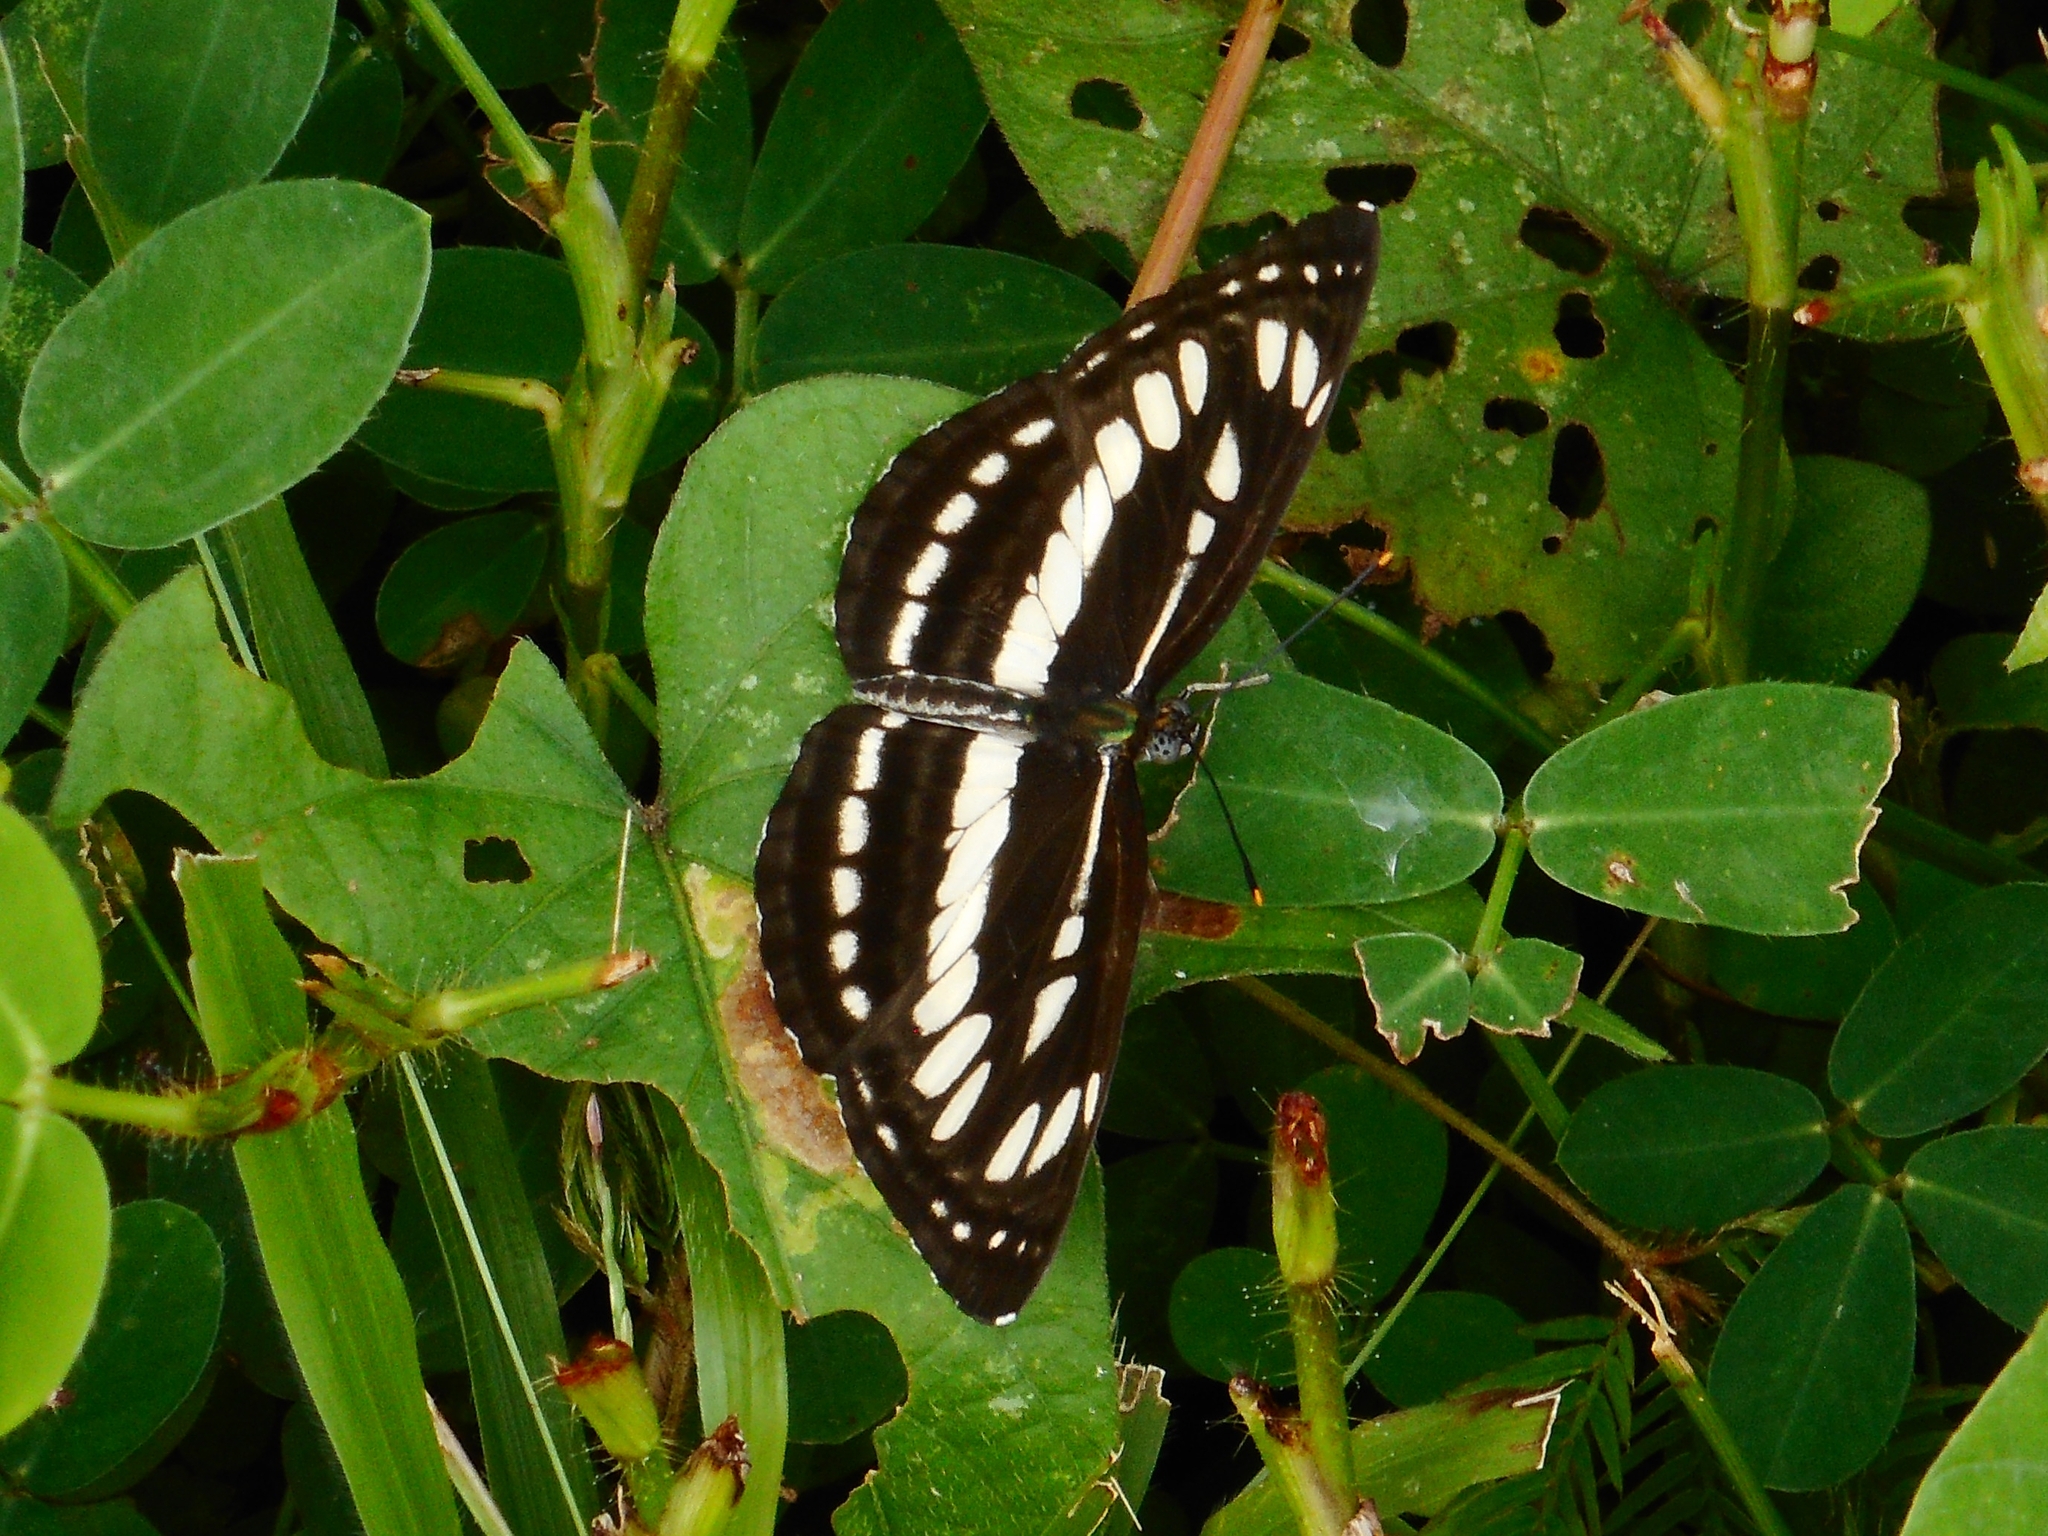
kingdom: Animalia
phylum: Arthropoda
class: Insecta
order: Lepidoptera
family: Nymphalidae
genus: Neptis
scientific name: Neptis hylas
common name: Common sailer
